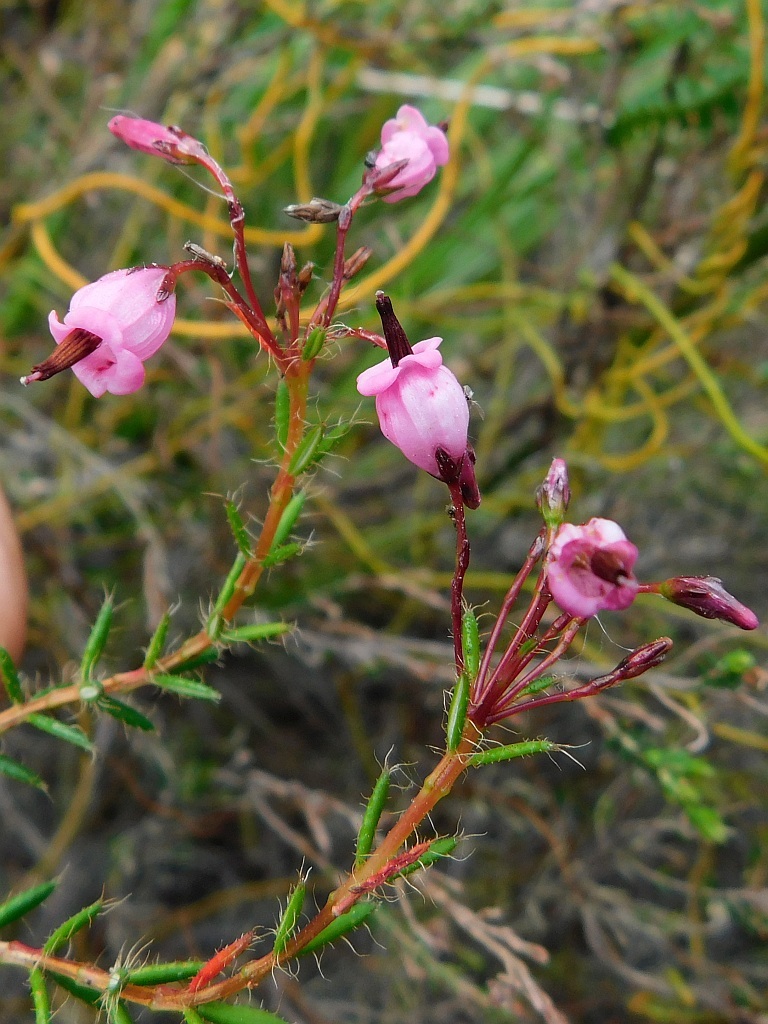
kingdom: Plantae
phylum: Tracheophyta
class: Magnoliopsida
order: Ericales
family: Ericaceae
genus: Erica
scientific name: Erica embothriifolia
